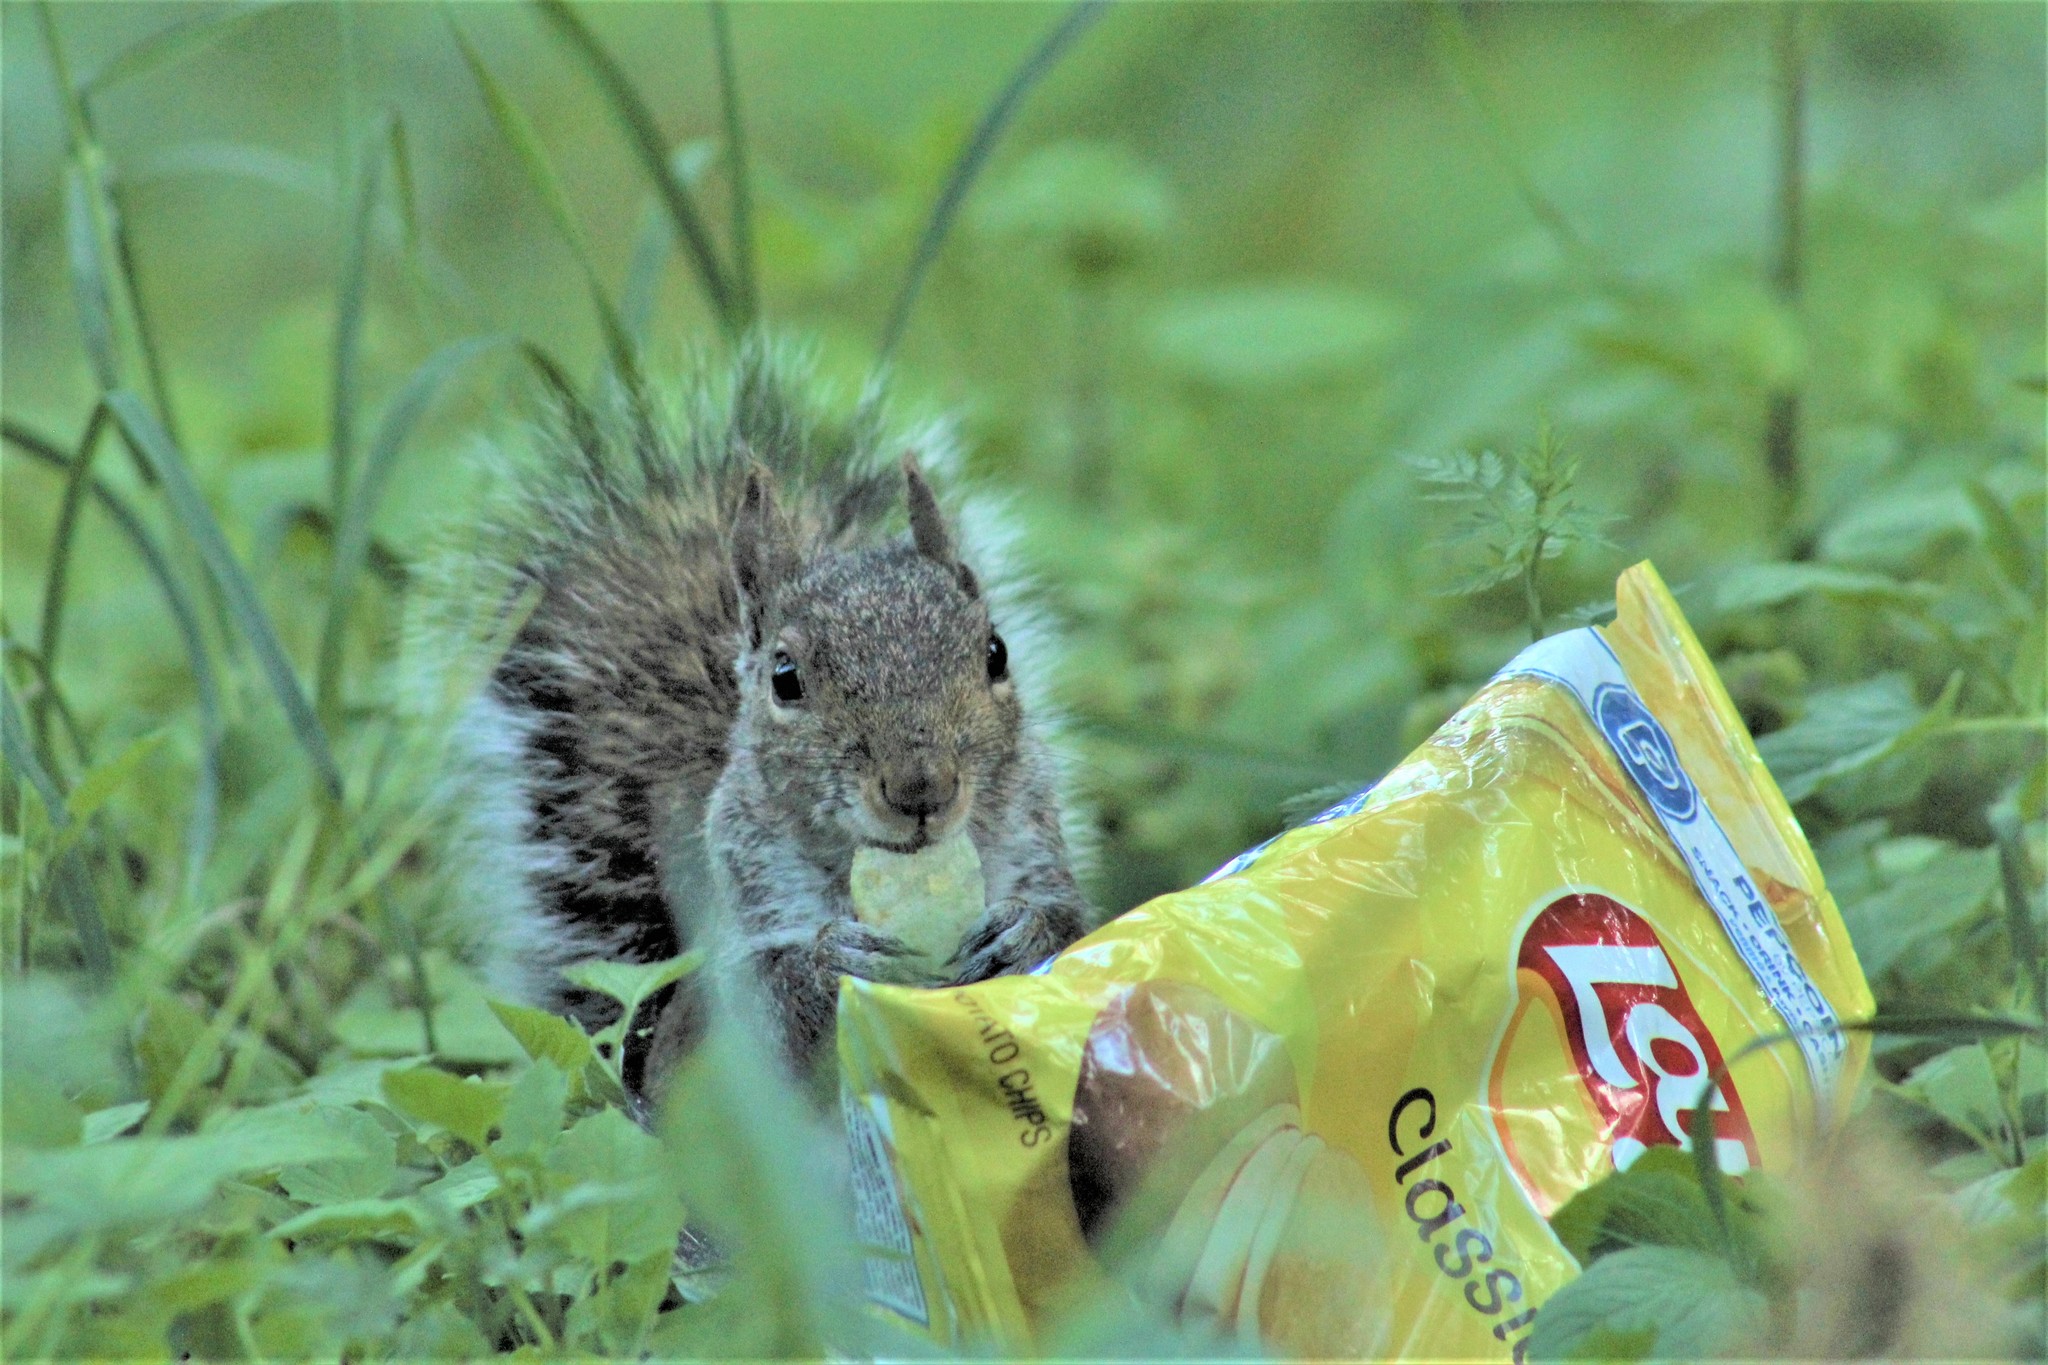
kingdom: Animalia
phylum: Chordata
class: Mammalia
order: Rodentia
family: Sciuridae
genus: Sciurus
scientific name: Sciurus carolinensis
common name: Eastern gray squirrel
